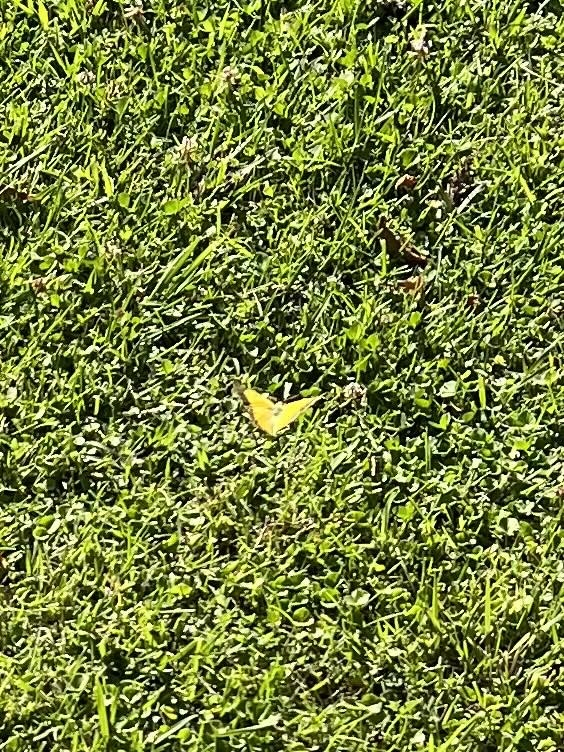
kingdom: Animalia
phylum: Arthropoda
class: Insecta
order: Lepidoptera
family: Pieridae
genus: Colias
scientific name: Colias croceus
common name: Clouded yellow
